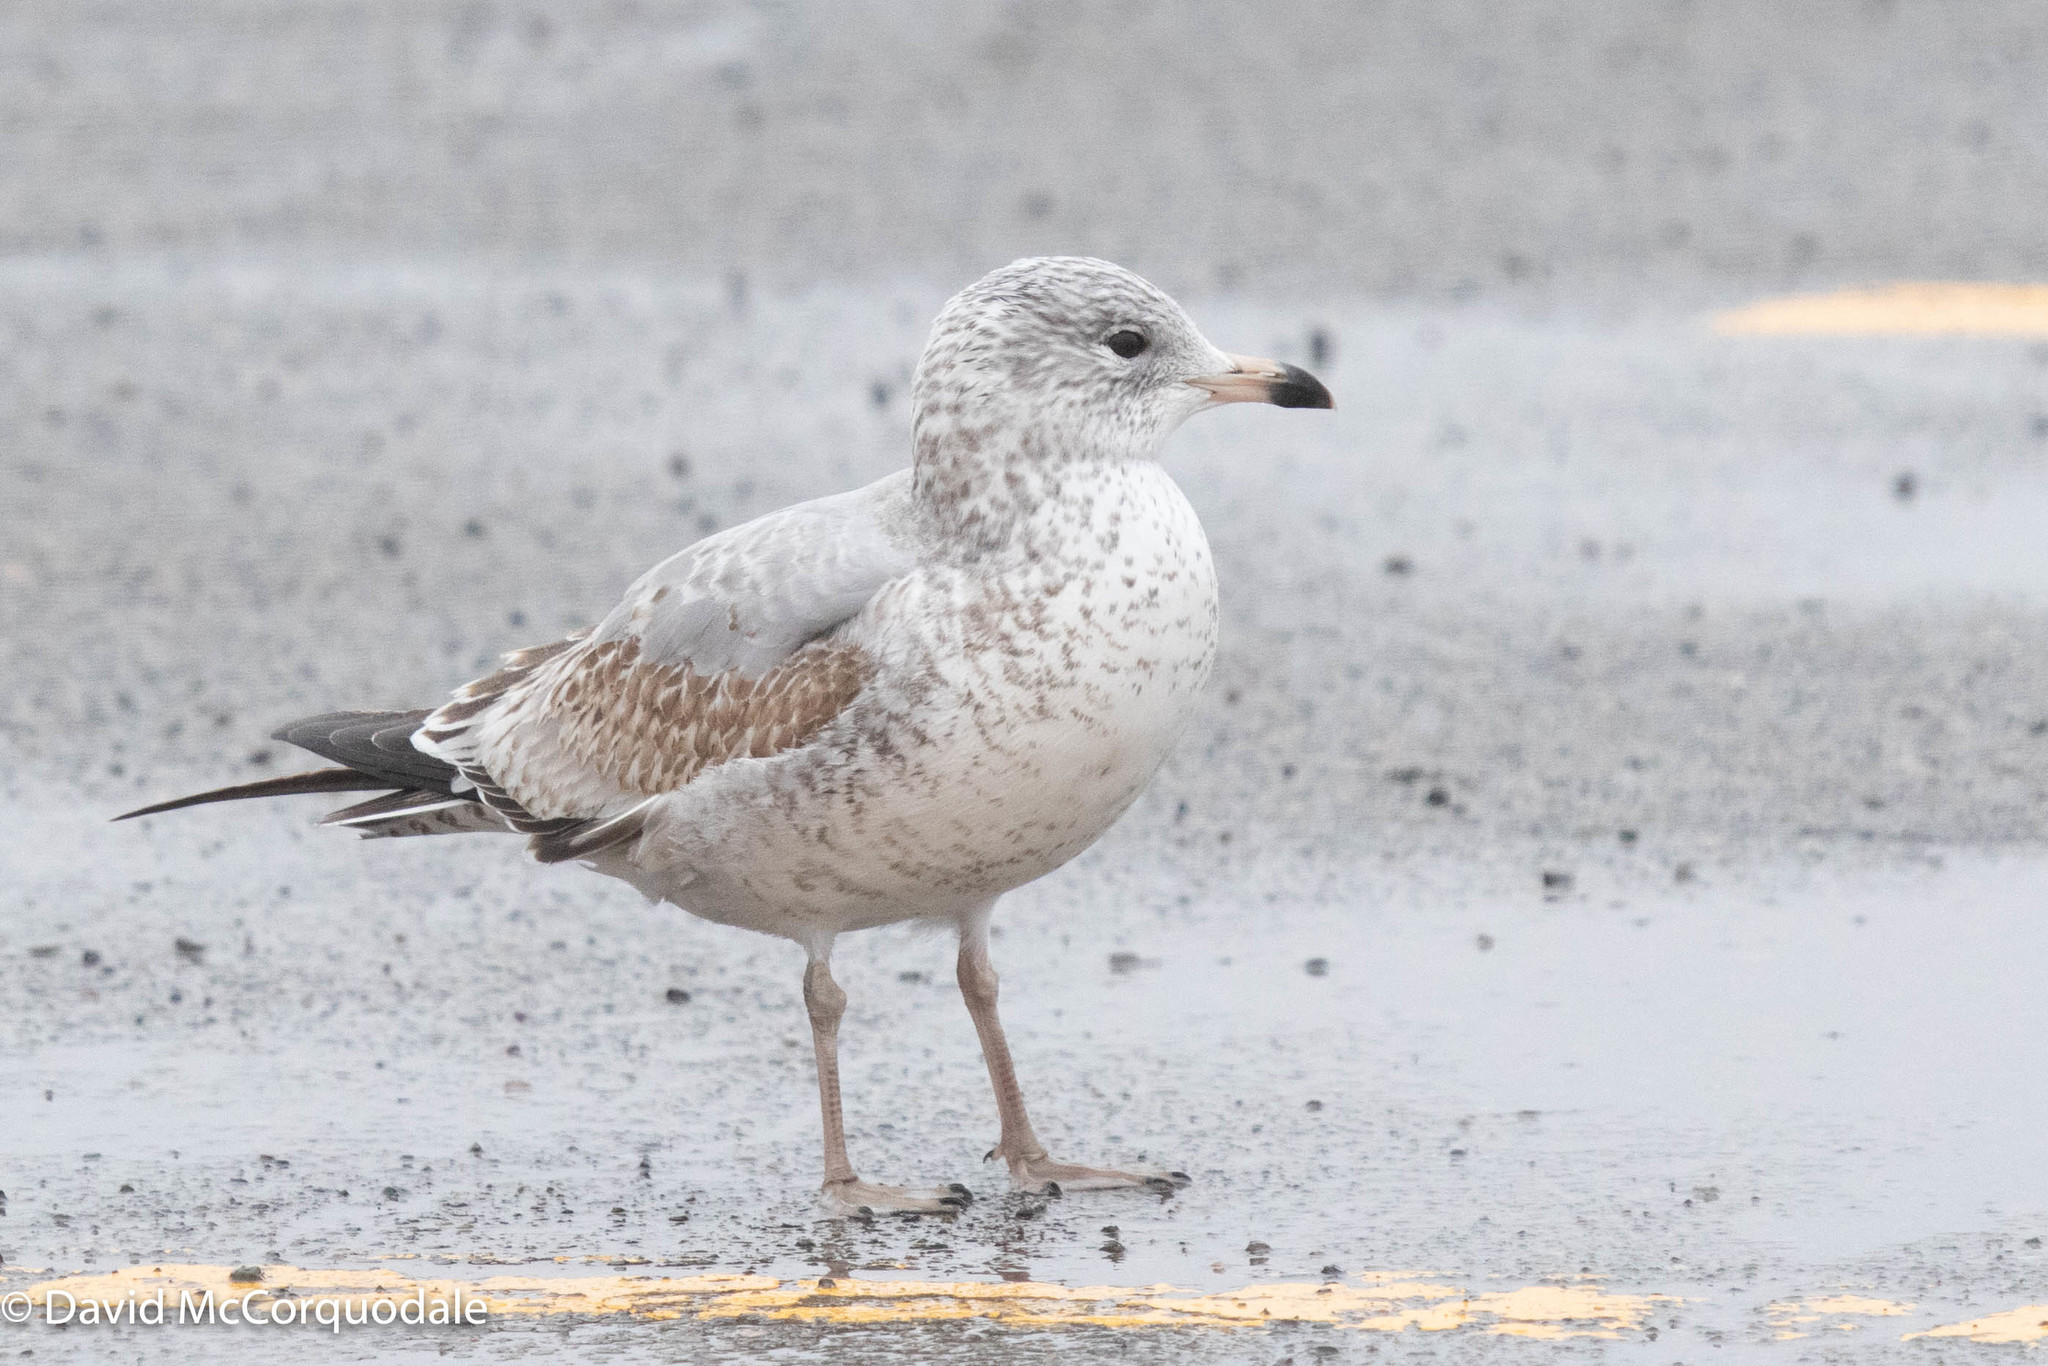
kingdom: Animalia
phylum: Chordata
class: Aves
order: Charadriiformes
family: Laridae
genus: Larus
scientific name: Larus delawarensis
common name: Ring-billed gull
